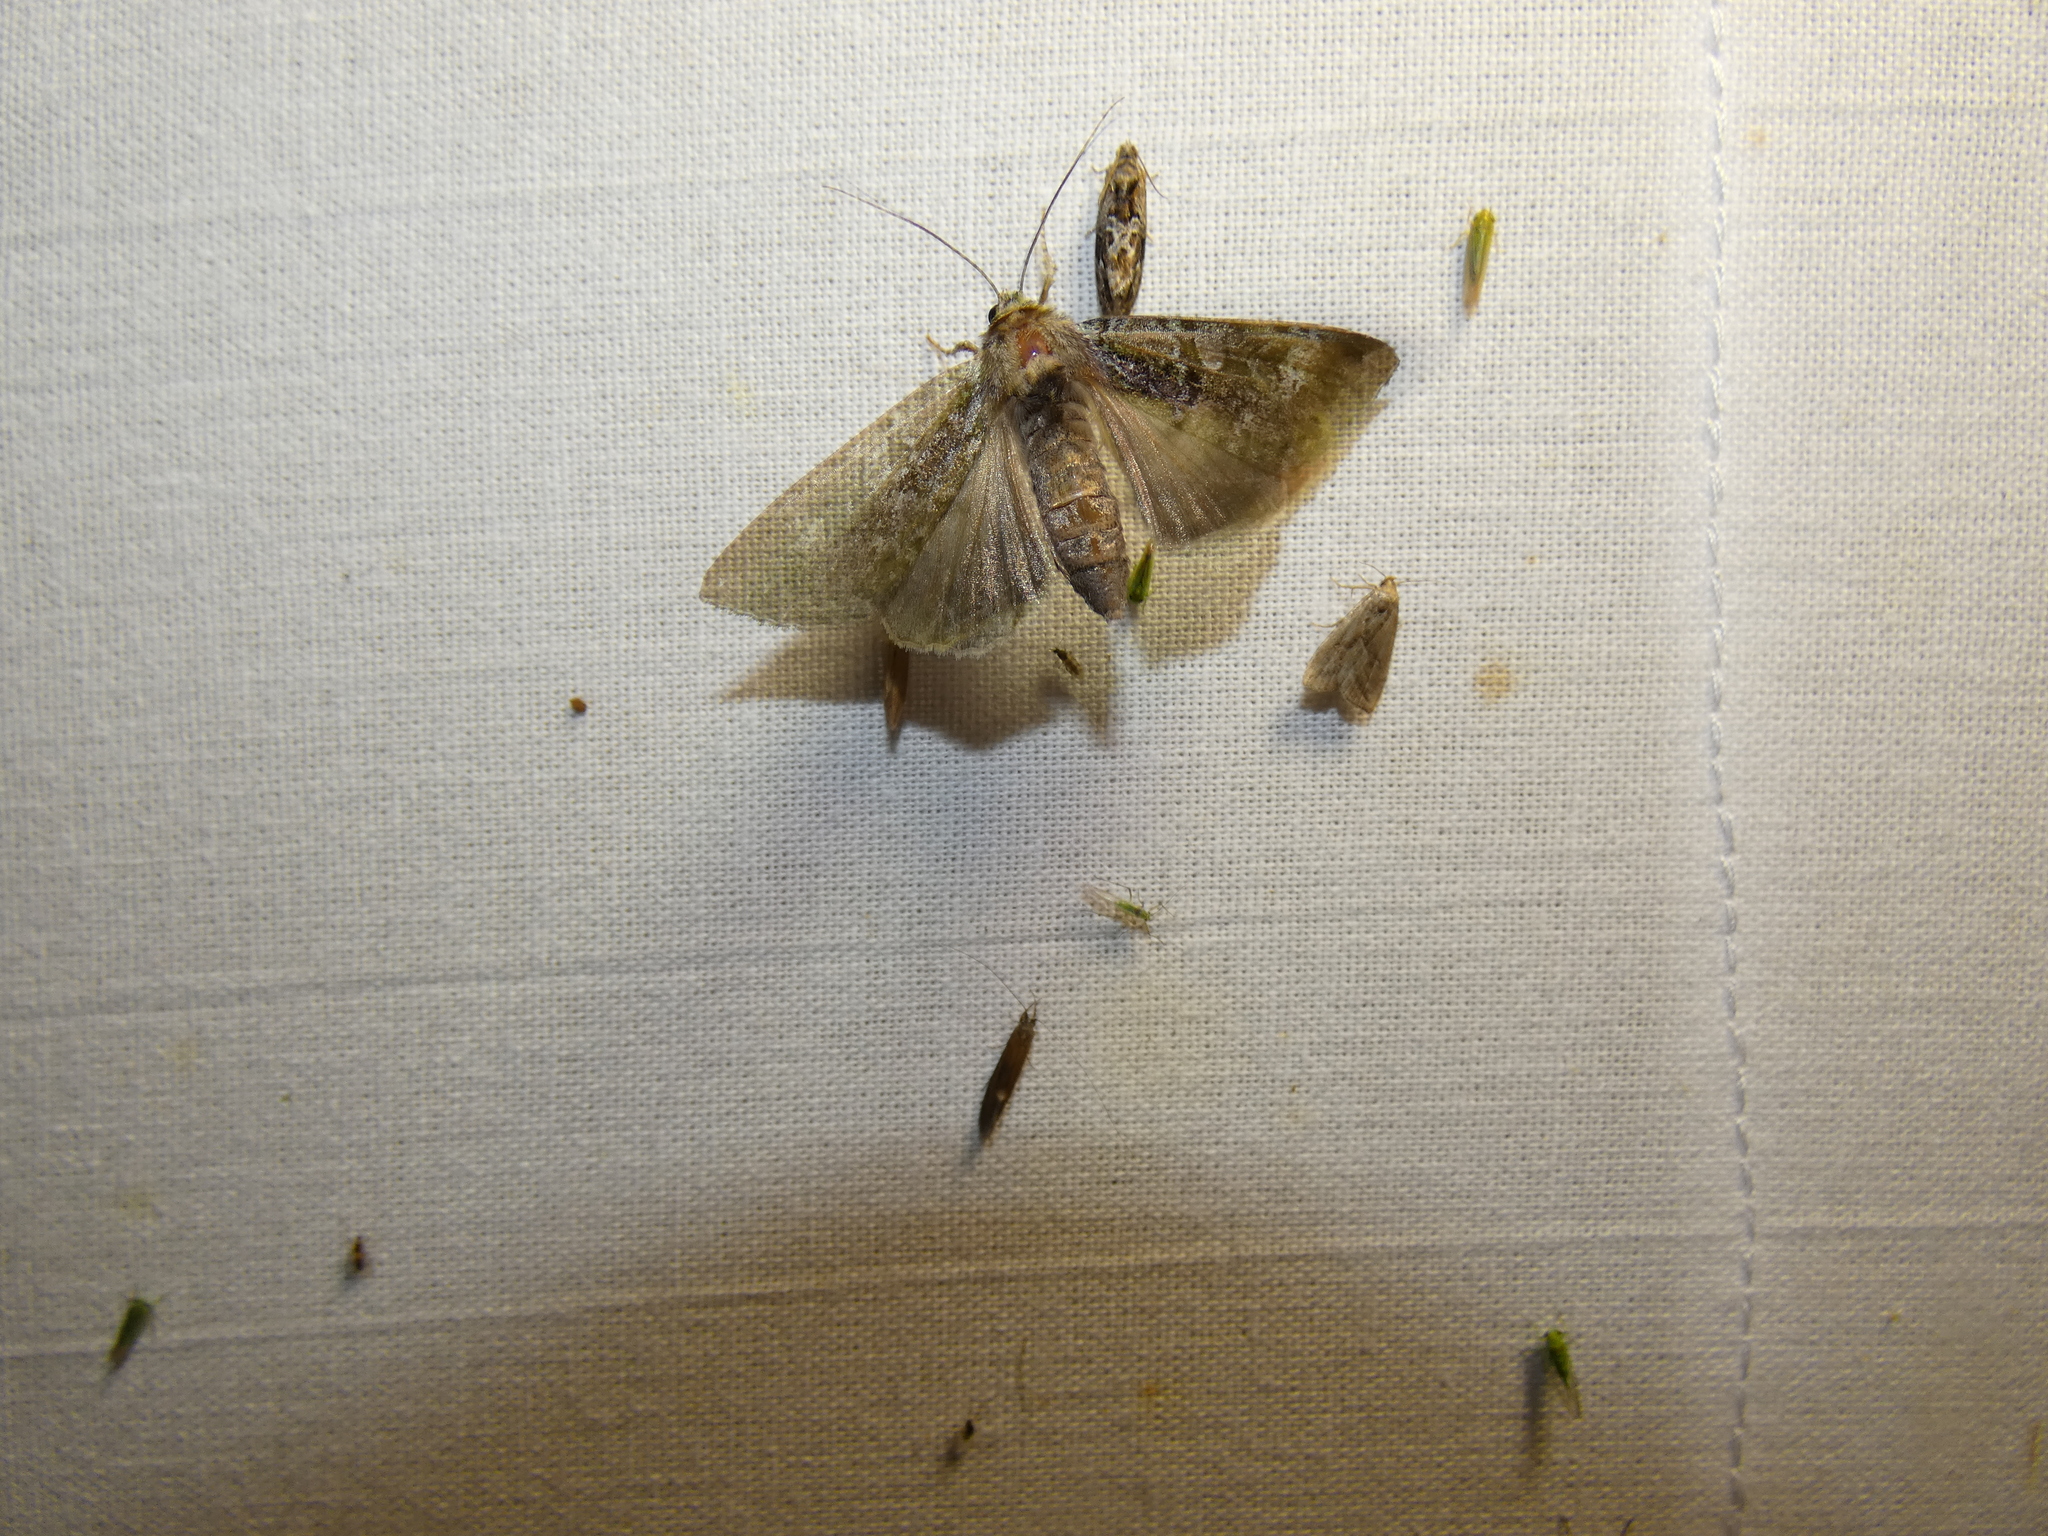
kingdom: Animalia
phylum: Arthropoda
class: Insecta
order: Lepidoptera
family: Noctuidae
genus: Anaplectoides
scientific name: Anaplectoides prasina
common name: Green arches
